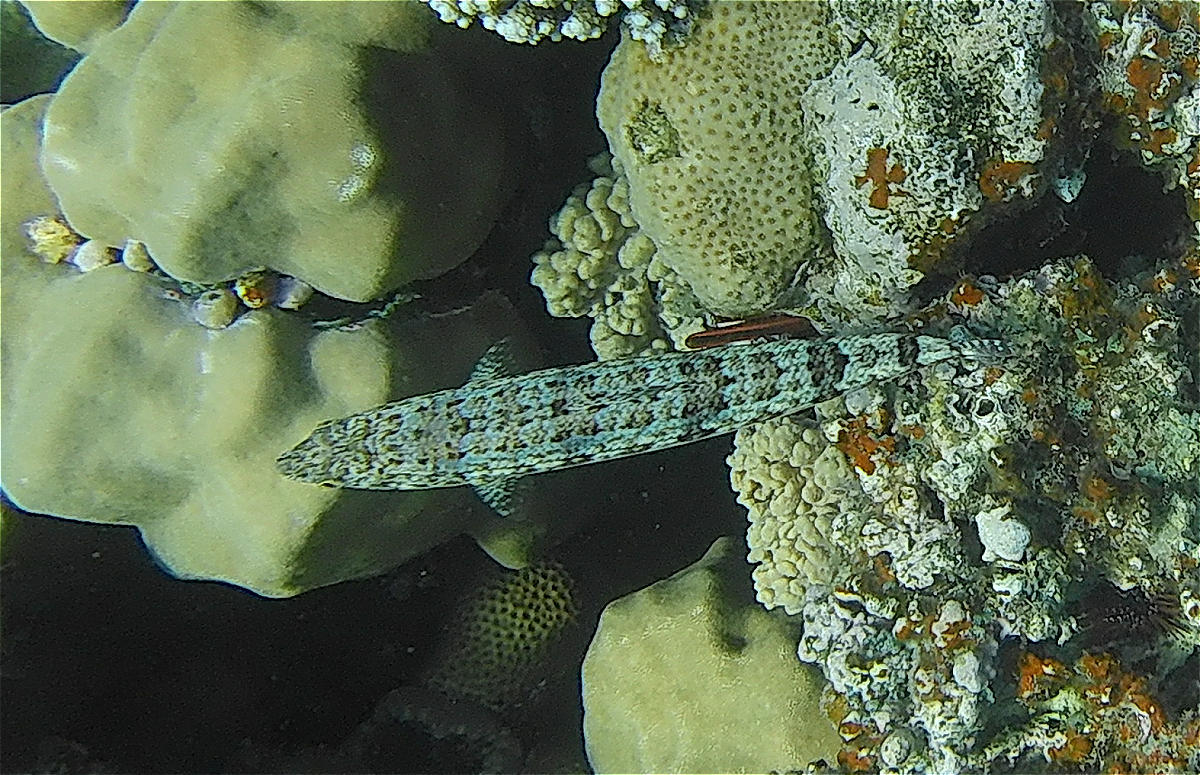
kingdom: Animalia
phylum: Chordata
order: Aulopiformes
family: Synodontidae
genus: Synodus
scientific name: Synodus dermatogenys
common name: Banded lizardfish
